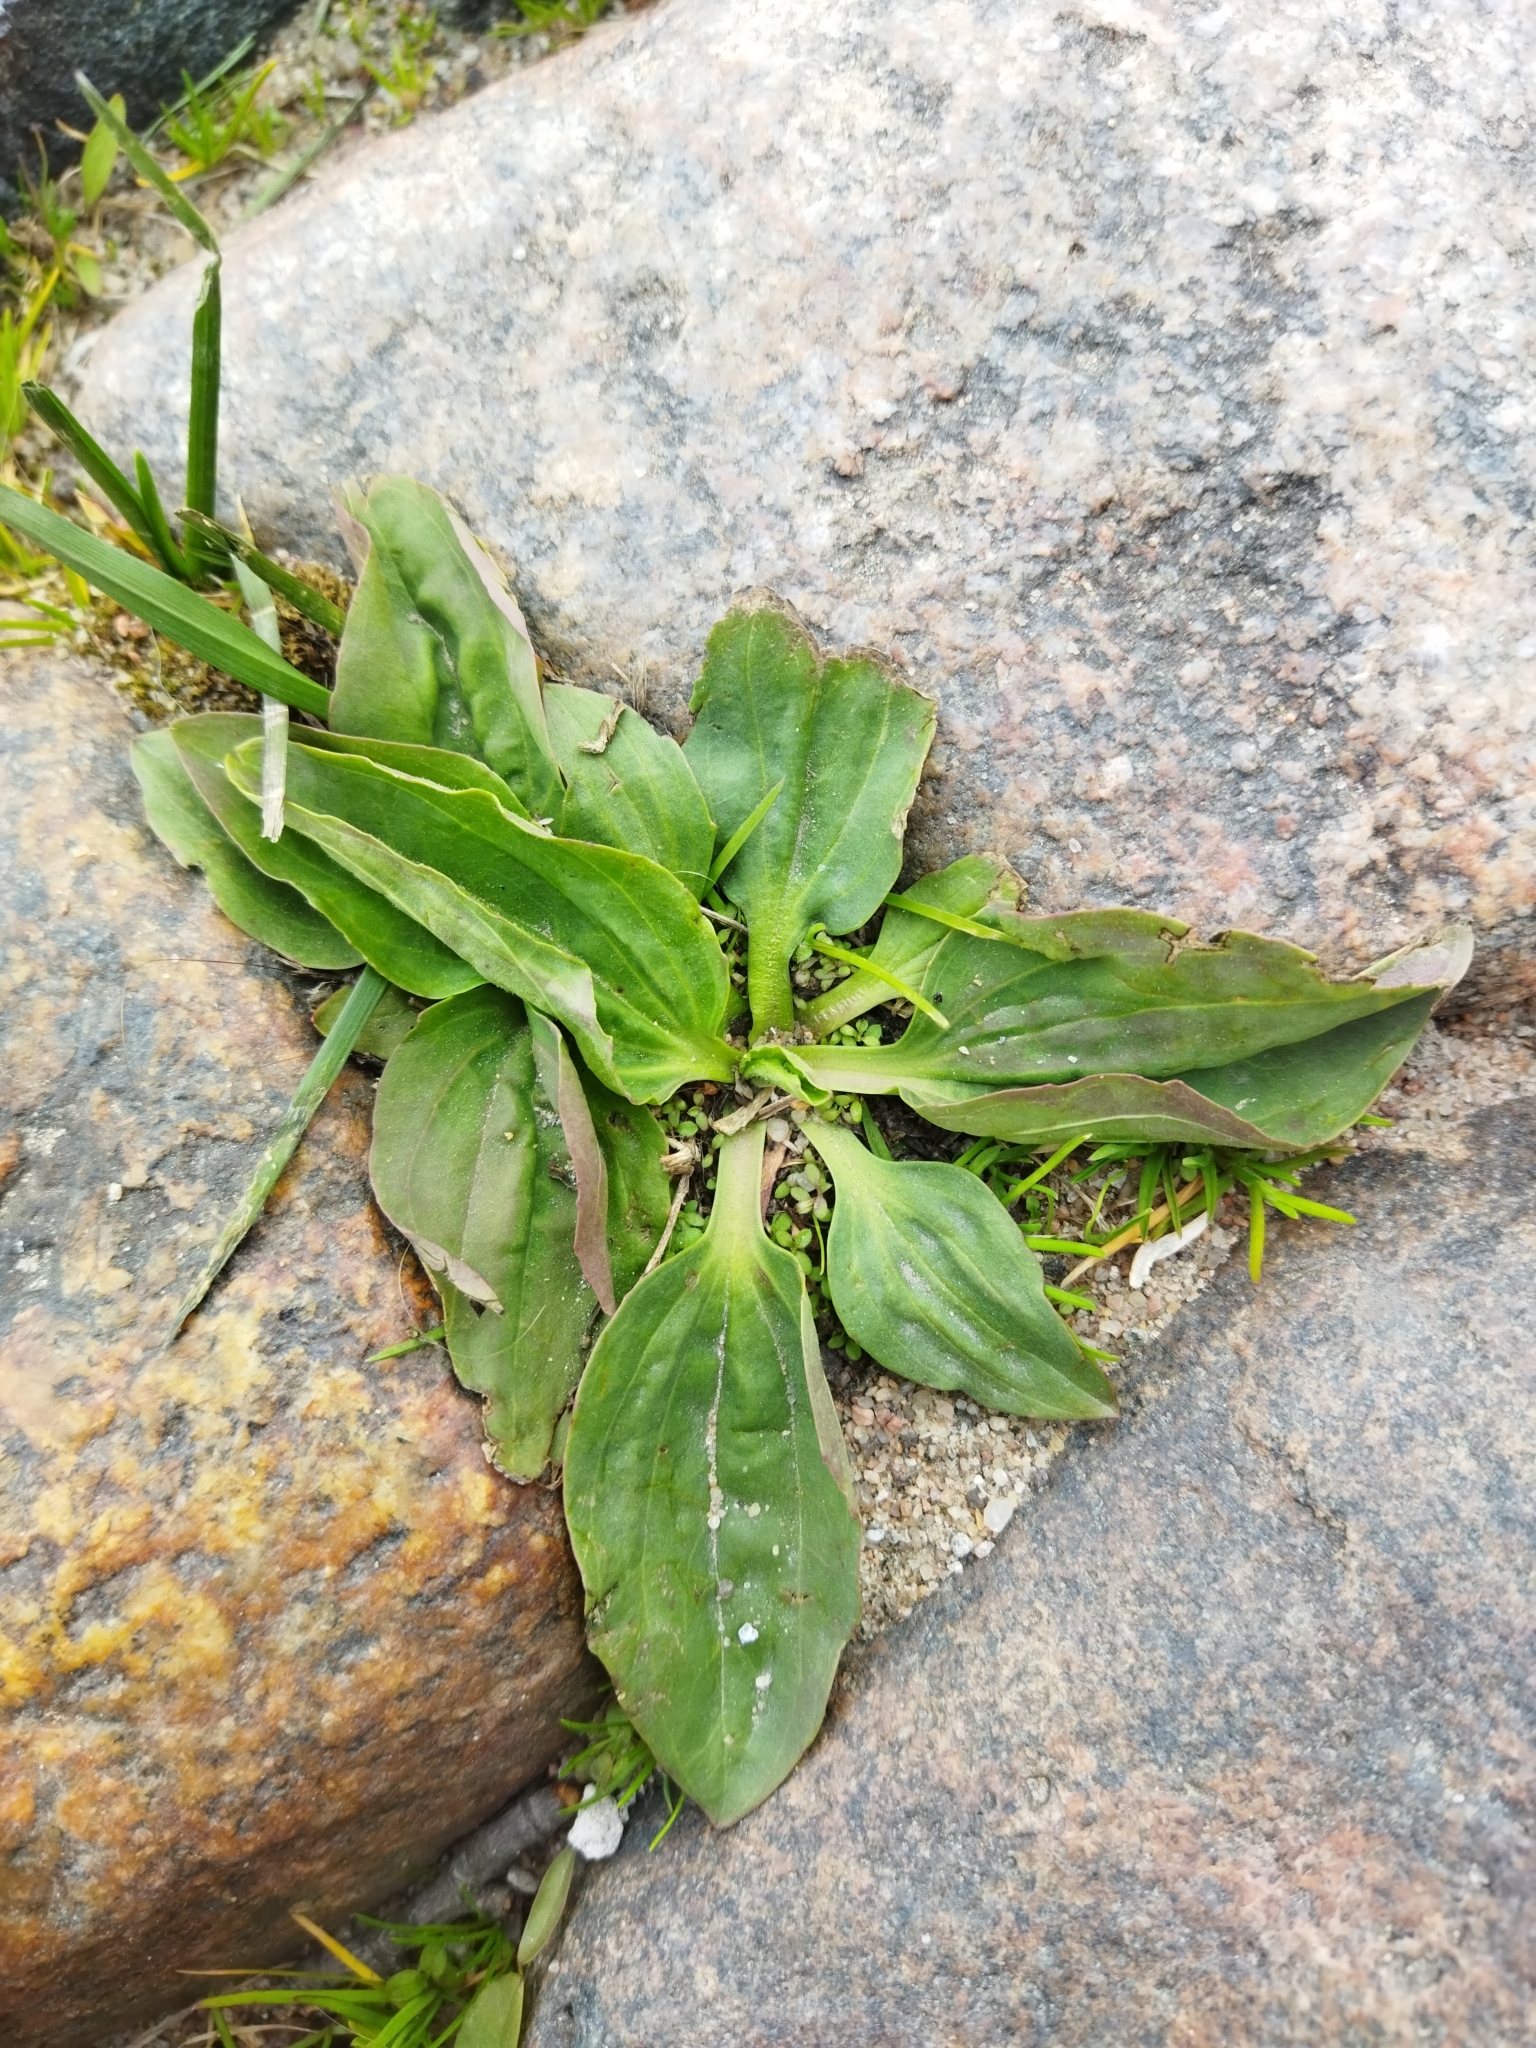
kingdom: Plantae
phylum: Tracheophyta
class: Magnoliopsida
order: Lamiales
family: Plantaginaceae
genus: Plantago
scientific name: Plantago major
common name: Common plantain
